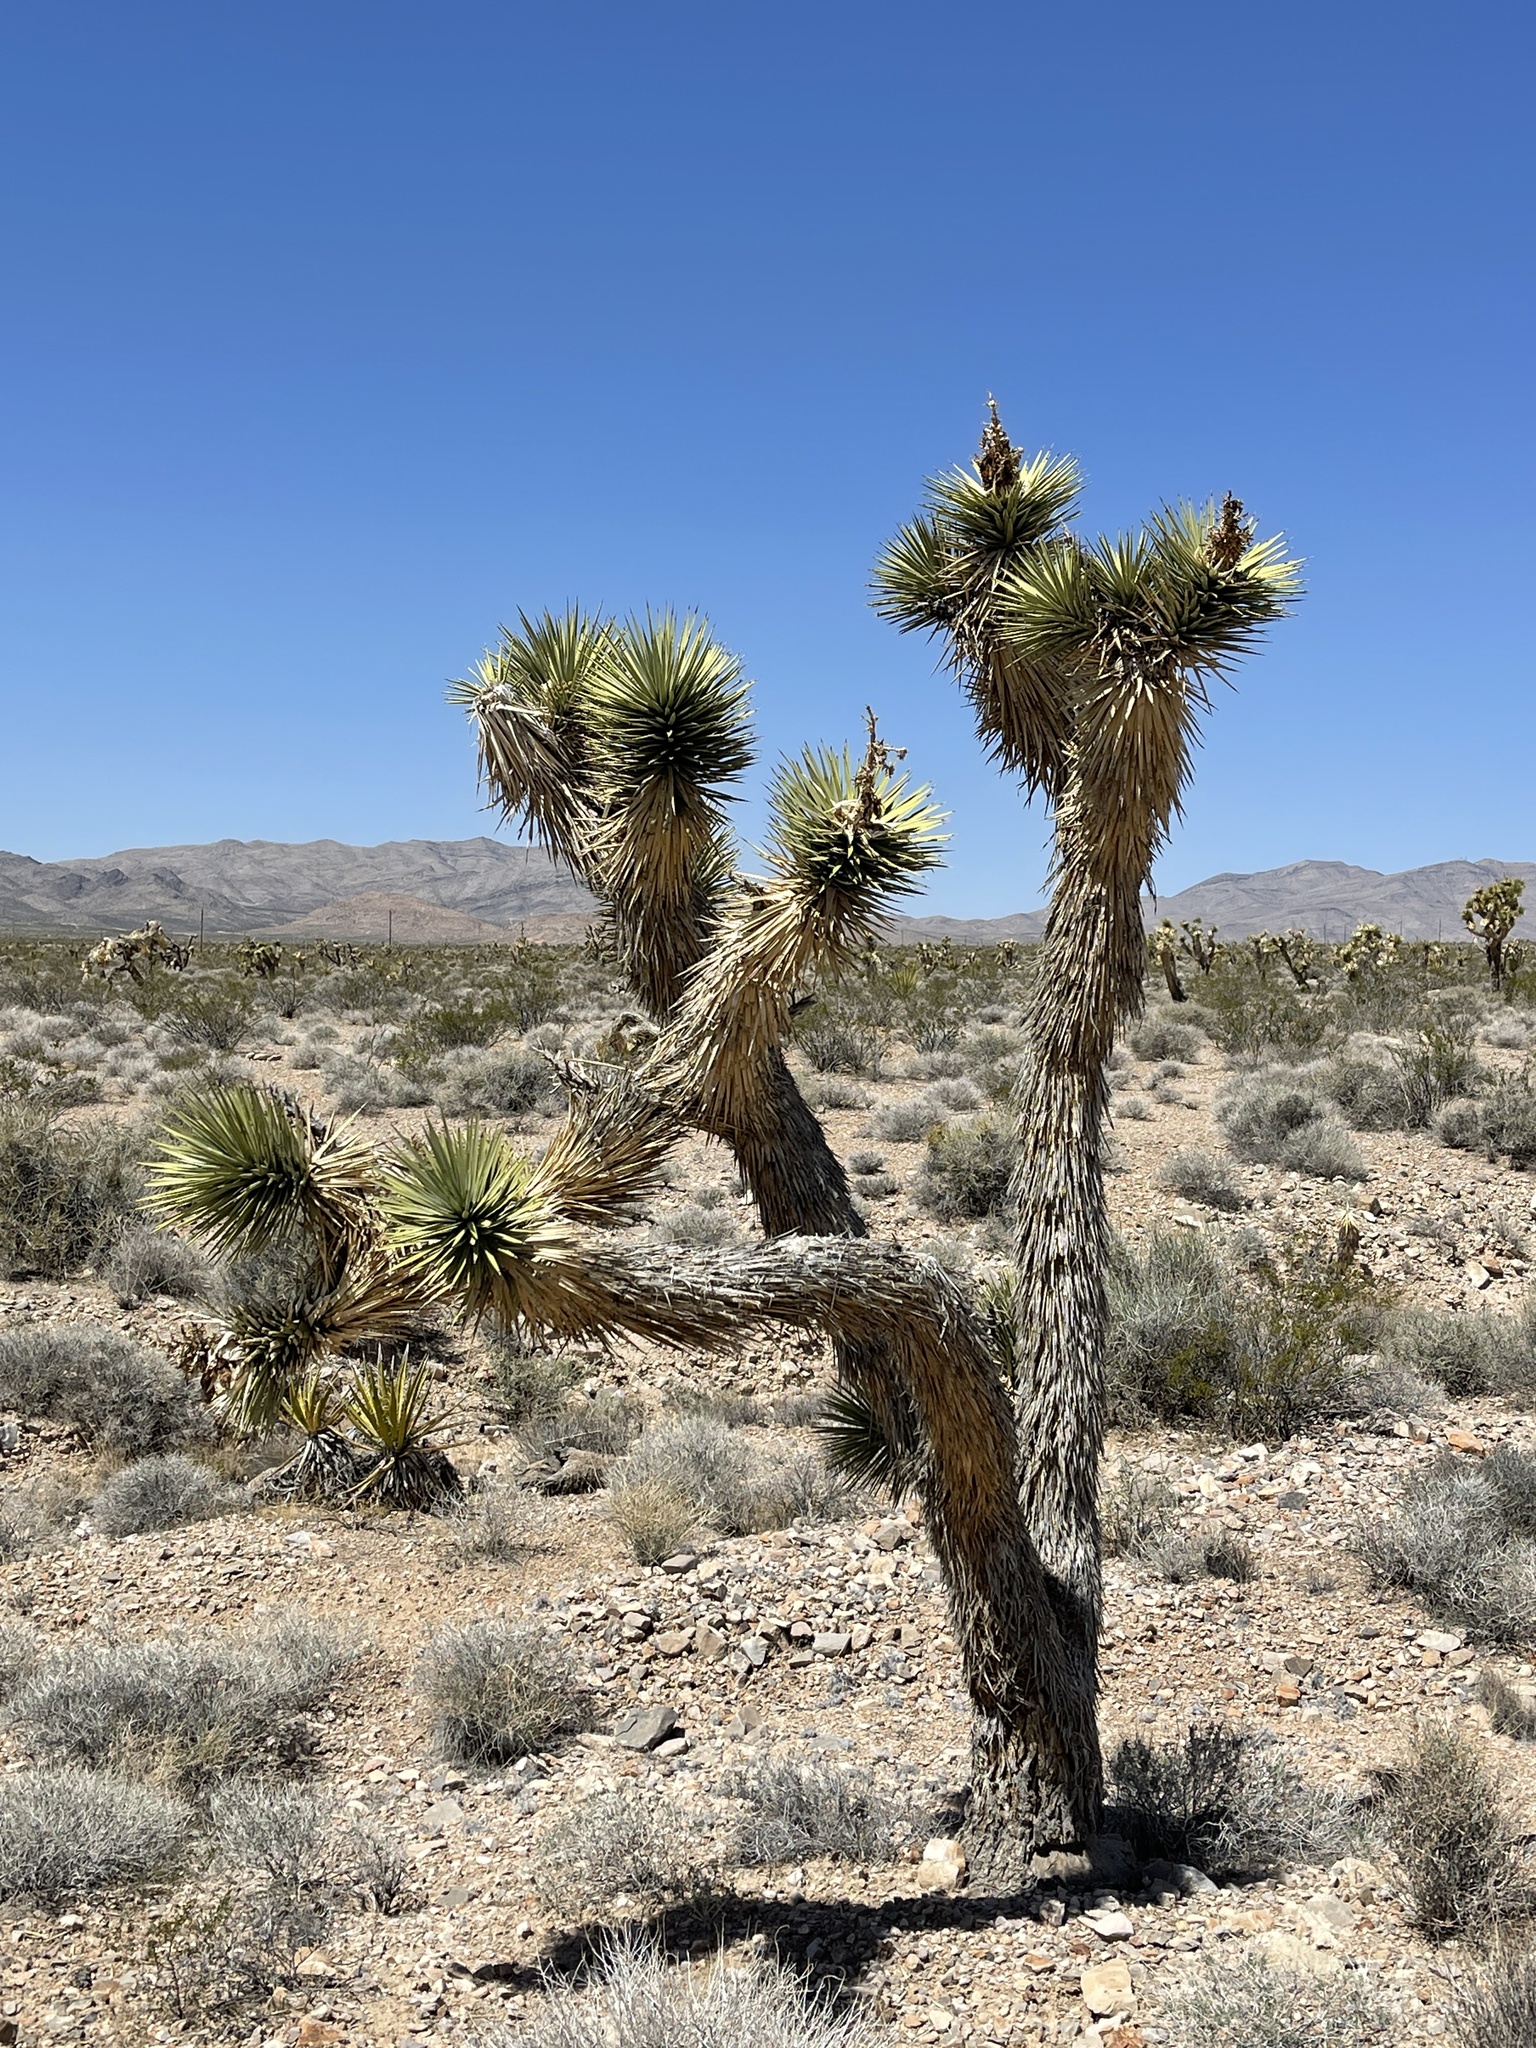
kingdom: Plantae
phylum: Tracheophyta
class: Liliopsida
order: Asparagales
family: Asparagaceae
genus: Yucca
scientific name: Yucca brevifolia
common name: Joshua tree
